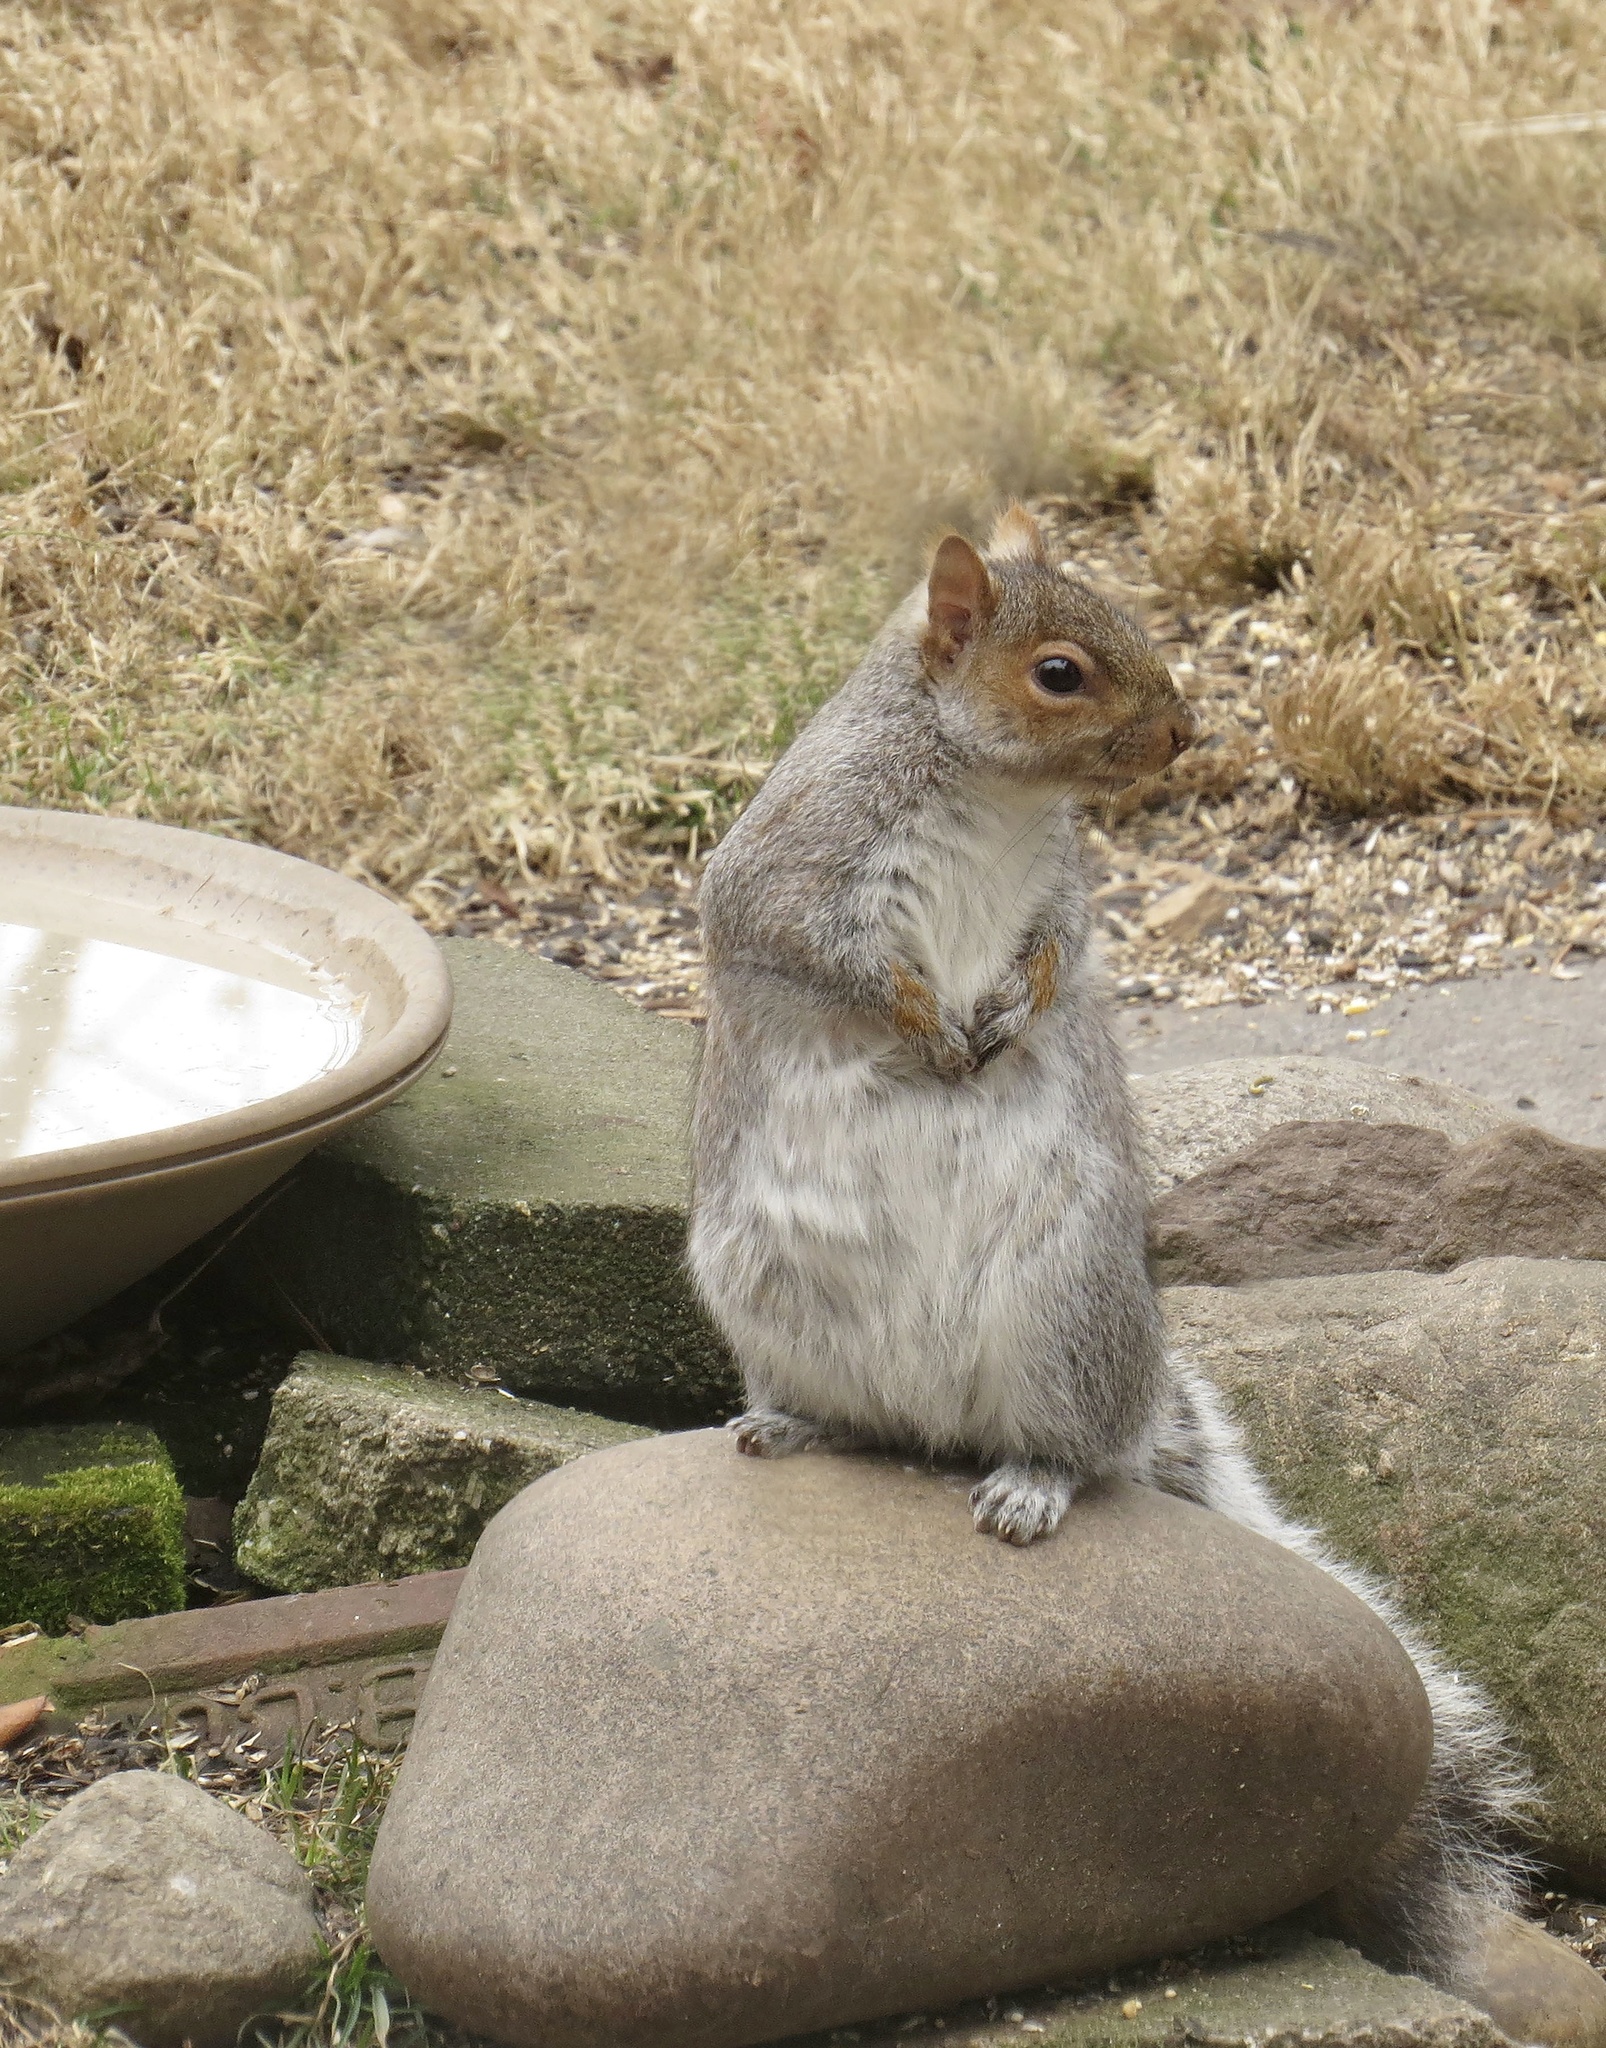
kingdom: Animalia
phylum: Chordata
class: Mammalia
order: Rodentia
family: Sciuridae
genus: Sciurus
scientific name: Sciurus carolinensis
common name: Eastern gray squirrel
